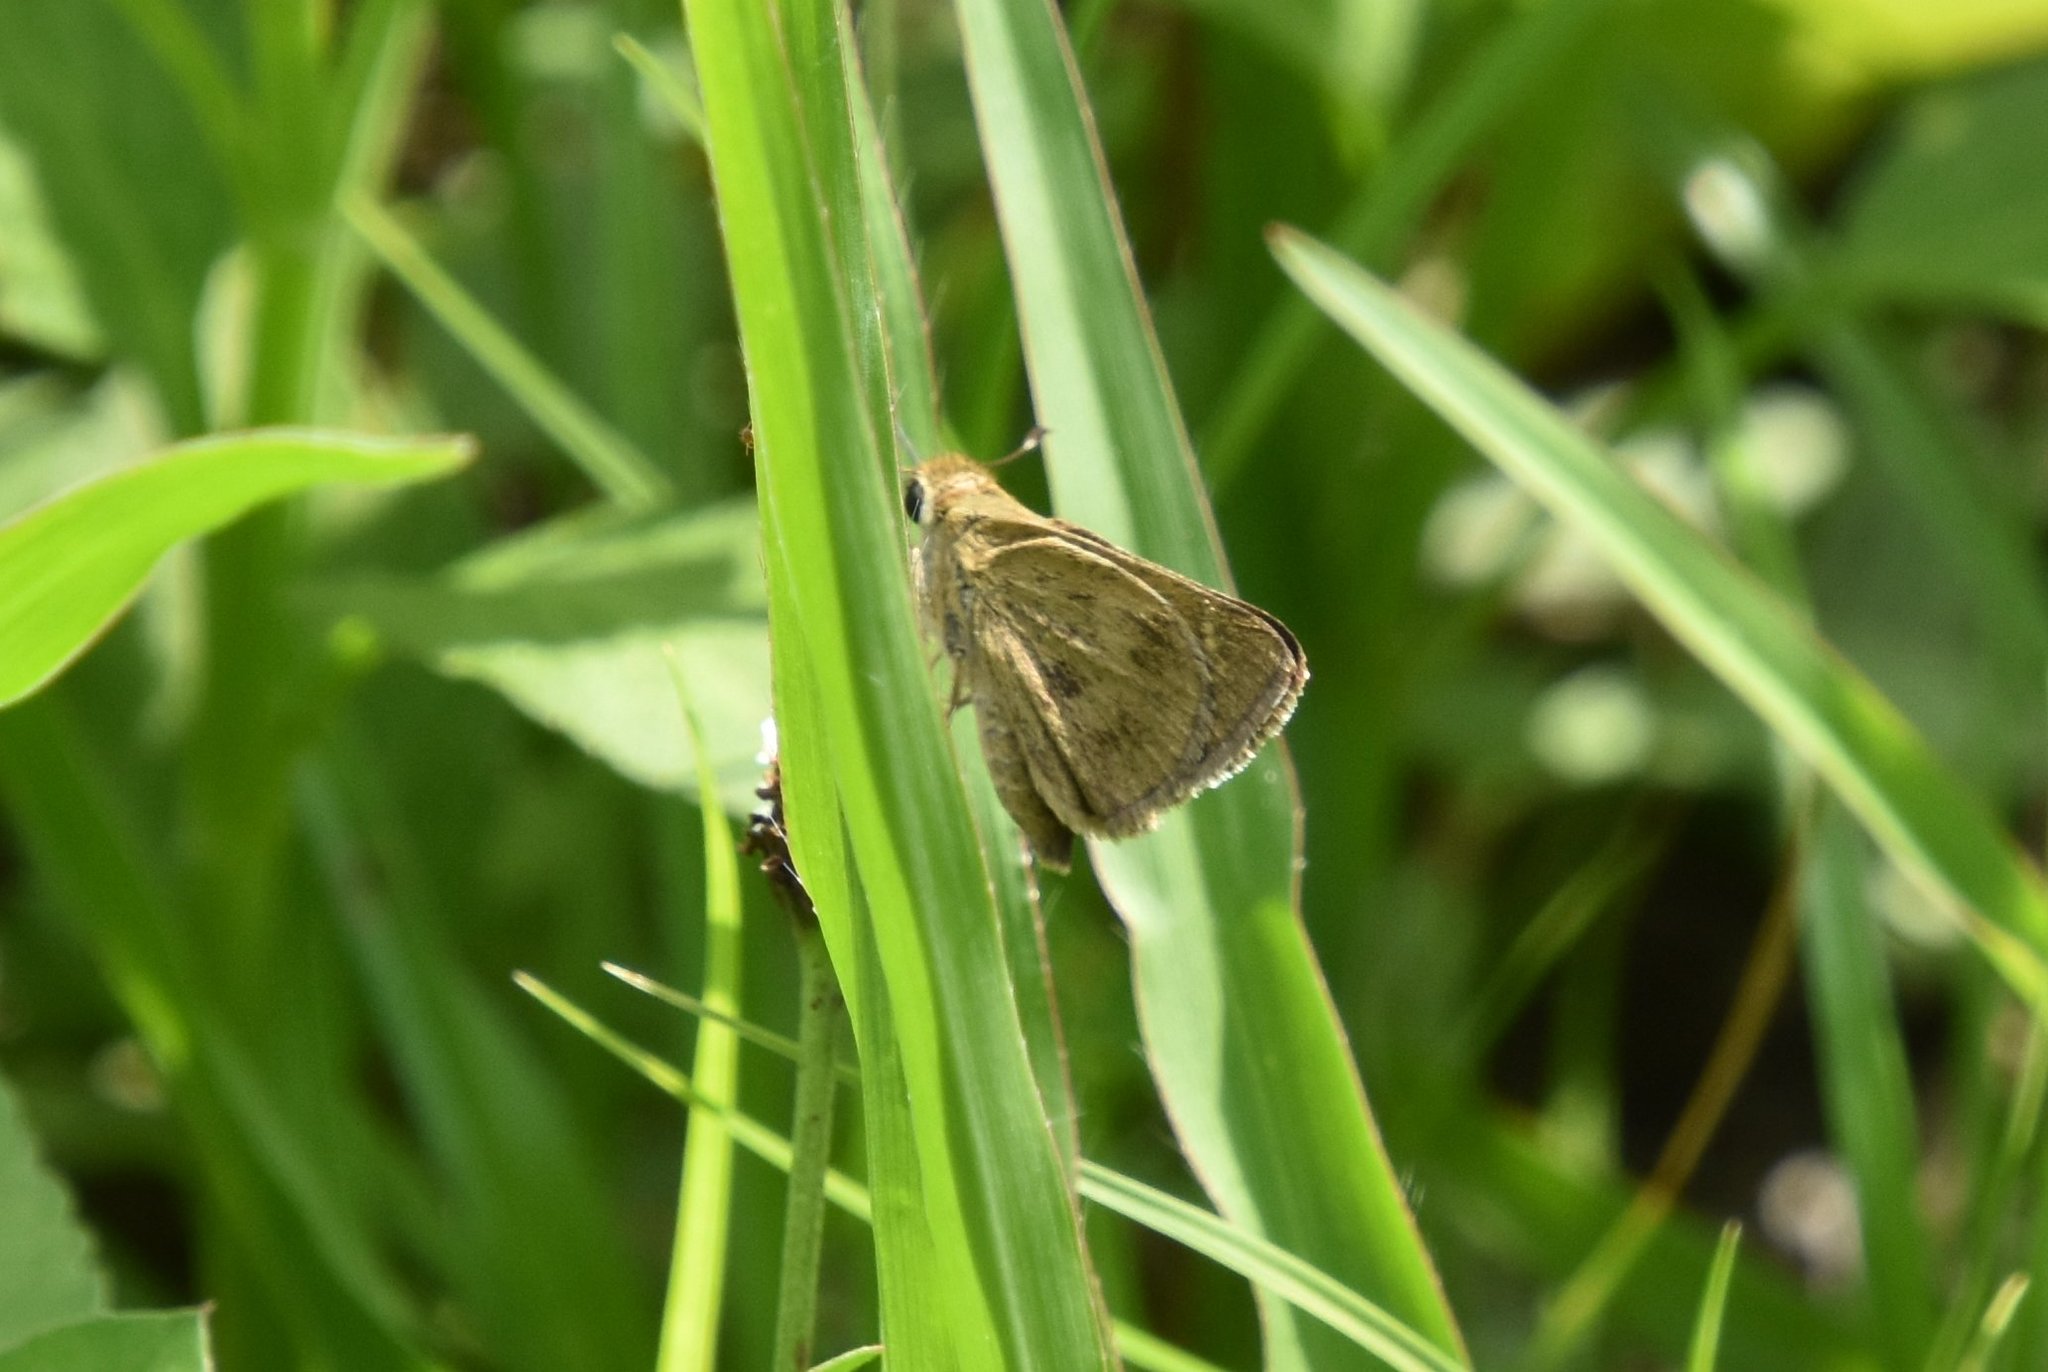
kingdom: Animalia
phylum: Arthropoda
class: Insecta
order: Lepidoptera
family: Hesperiidae
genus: Polites
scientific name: Polites vibex
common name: Whirlabout
